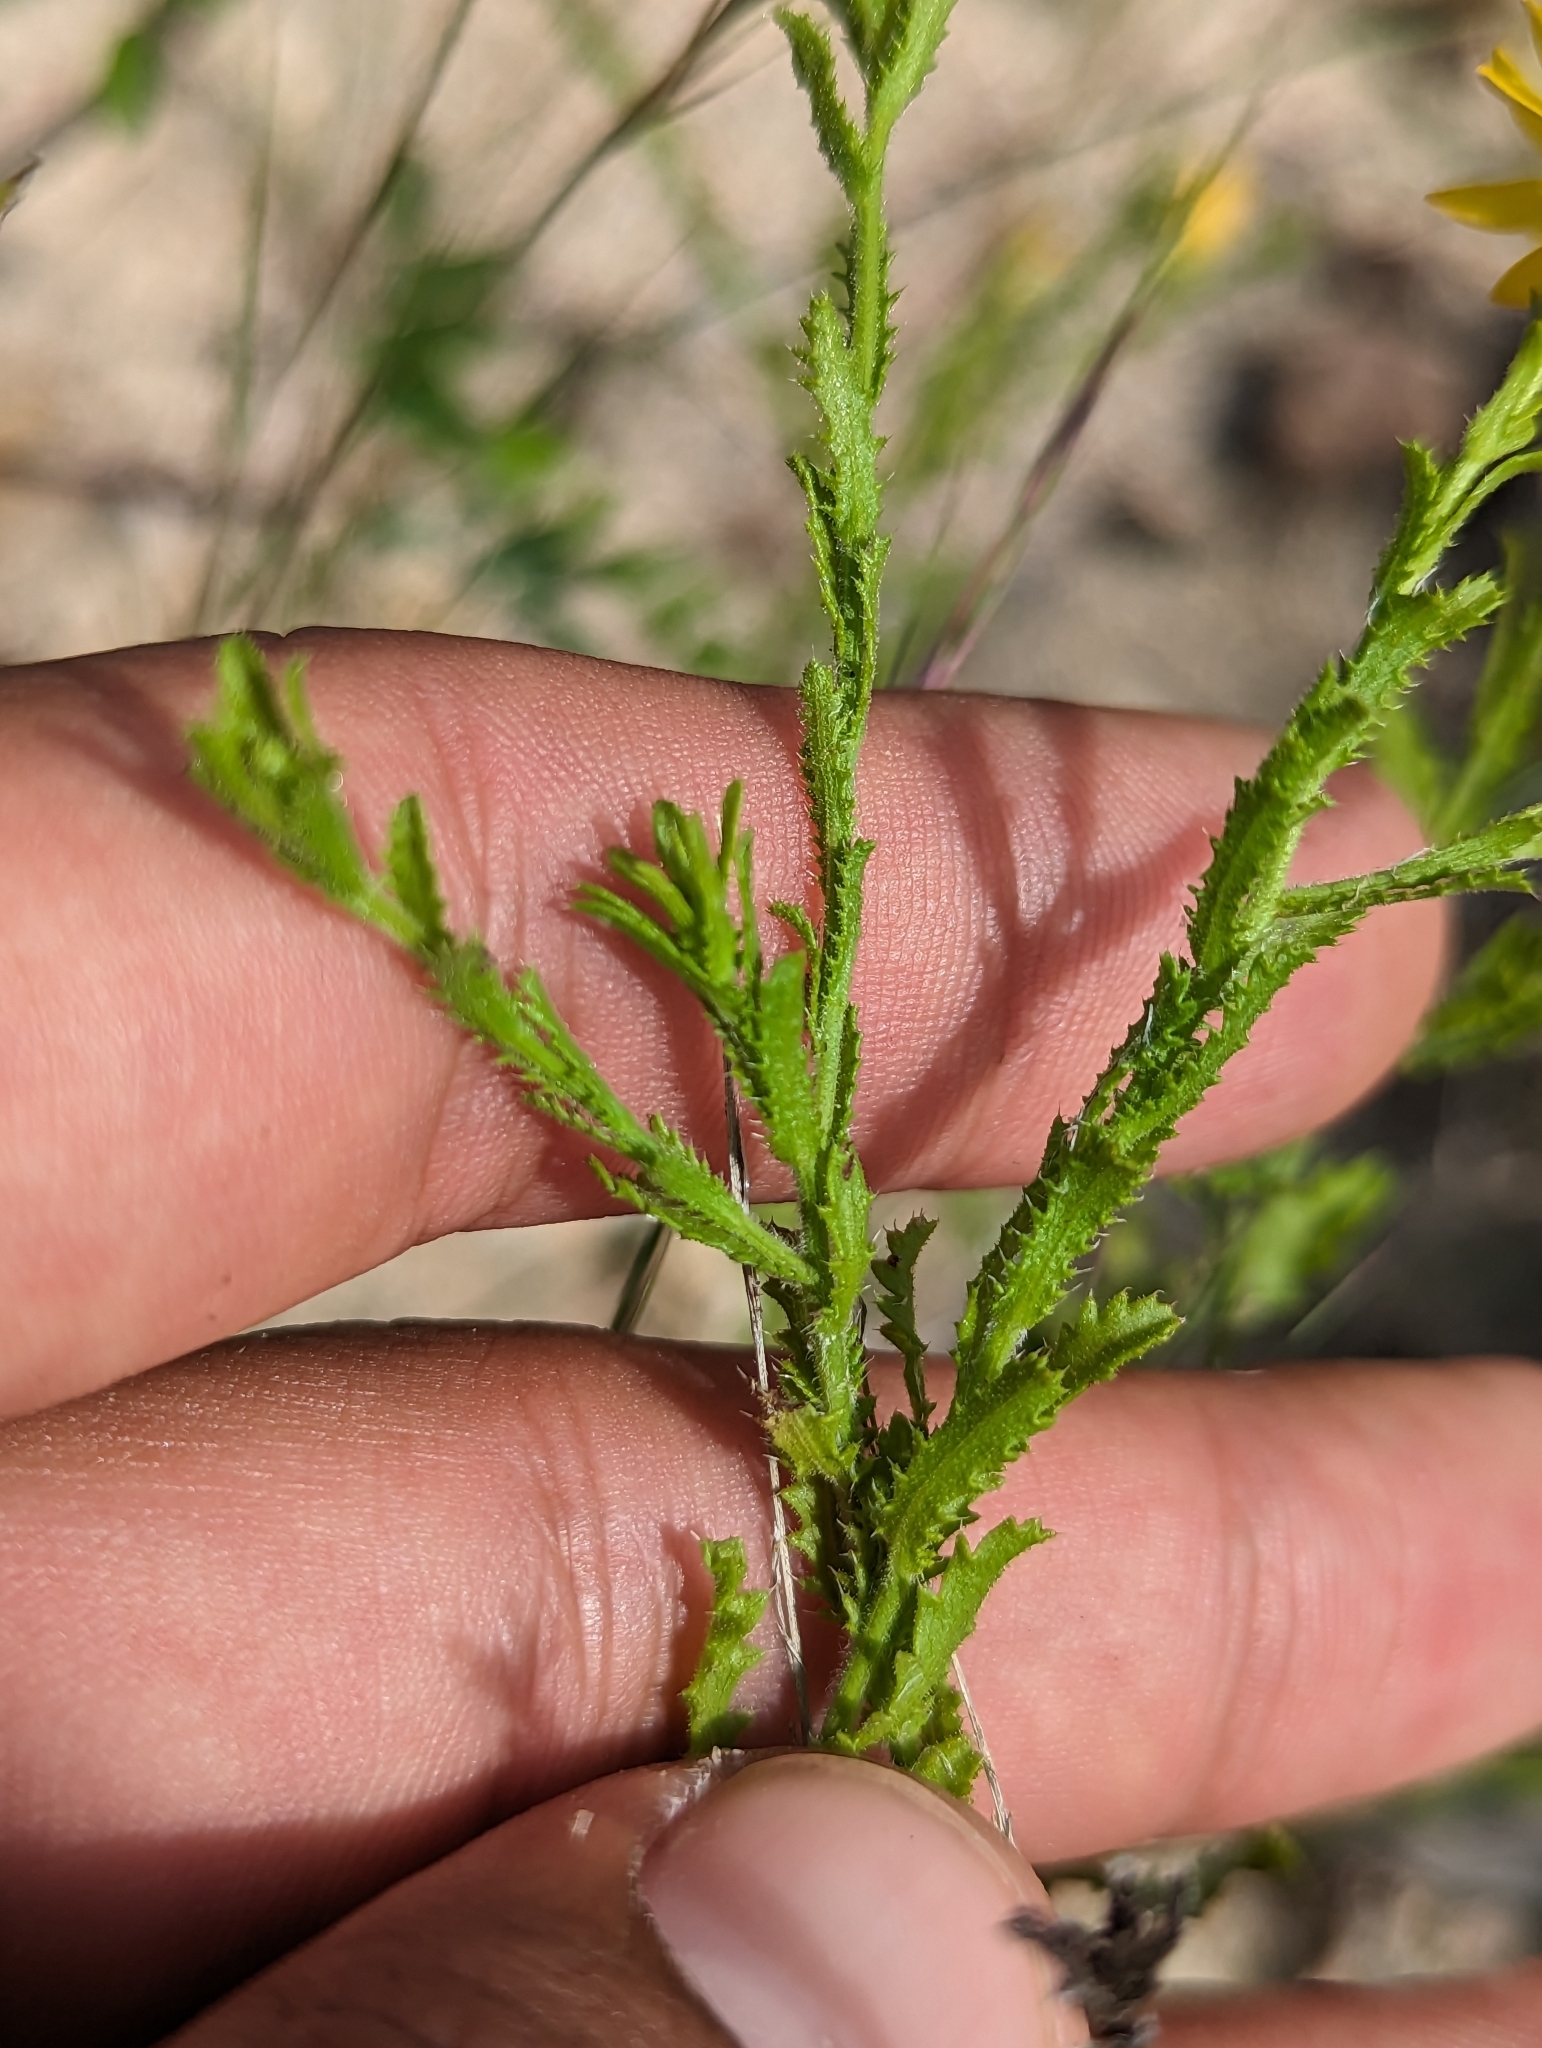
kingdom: Plantae
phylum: Tracheophyta
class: Magnoliopsida
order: Asterales
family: Asteraceae
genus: Xanthisma
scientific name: Xanthisma scabrellum
